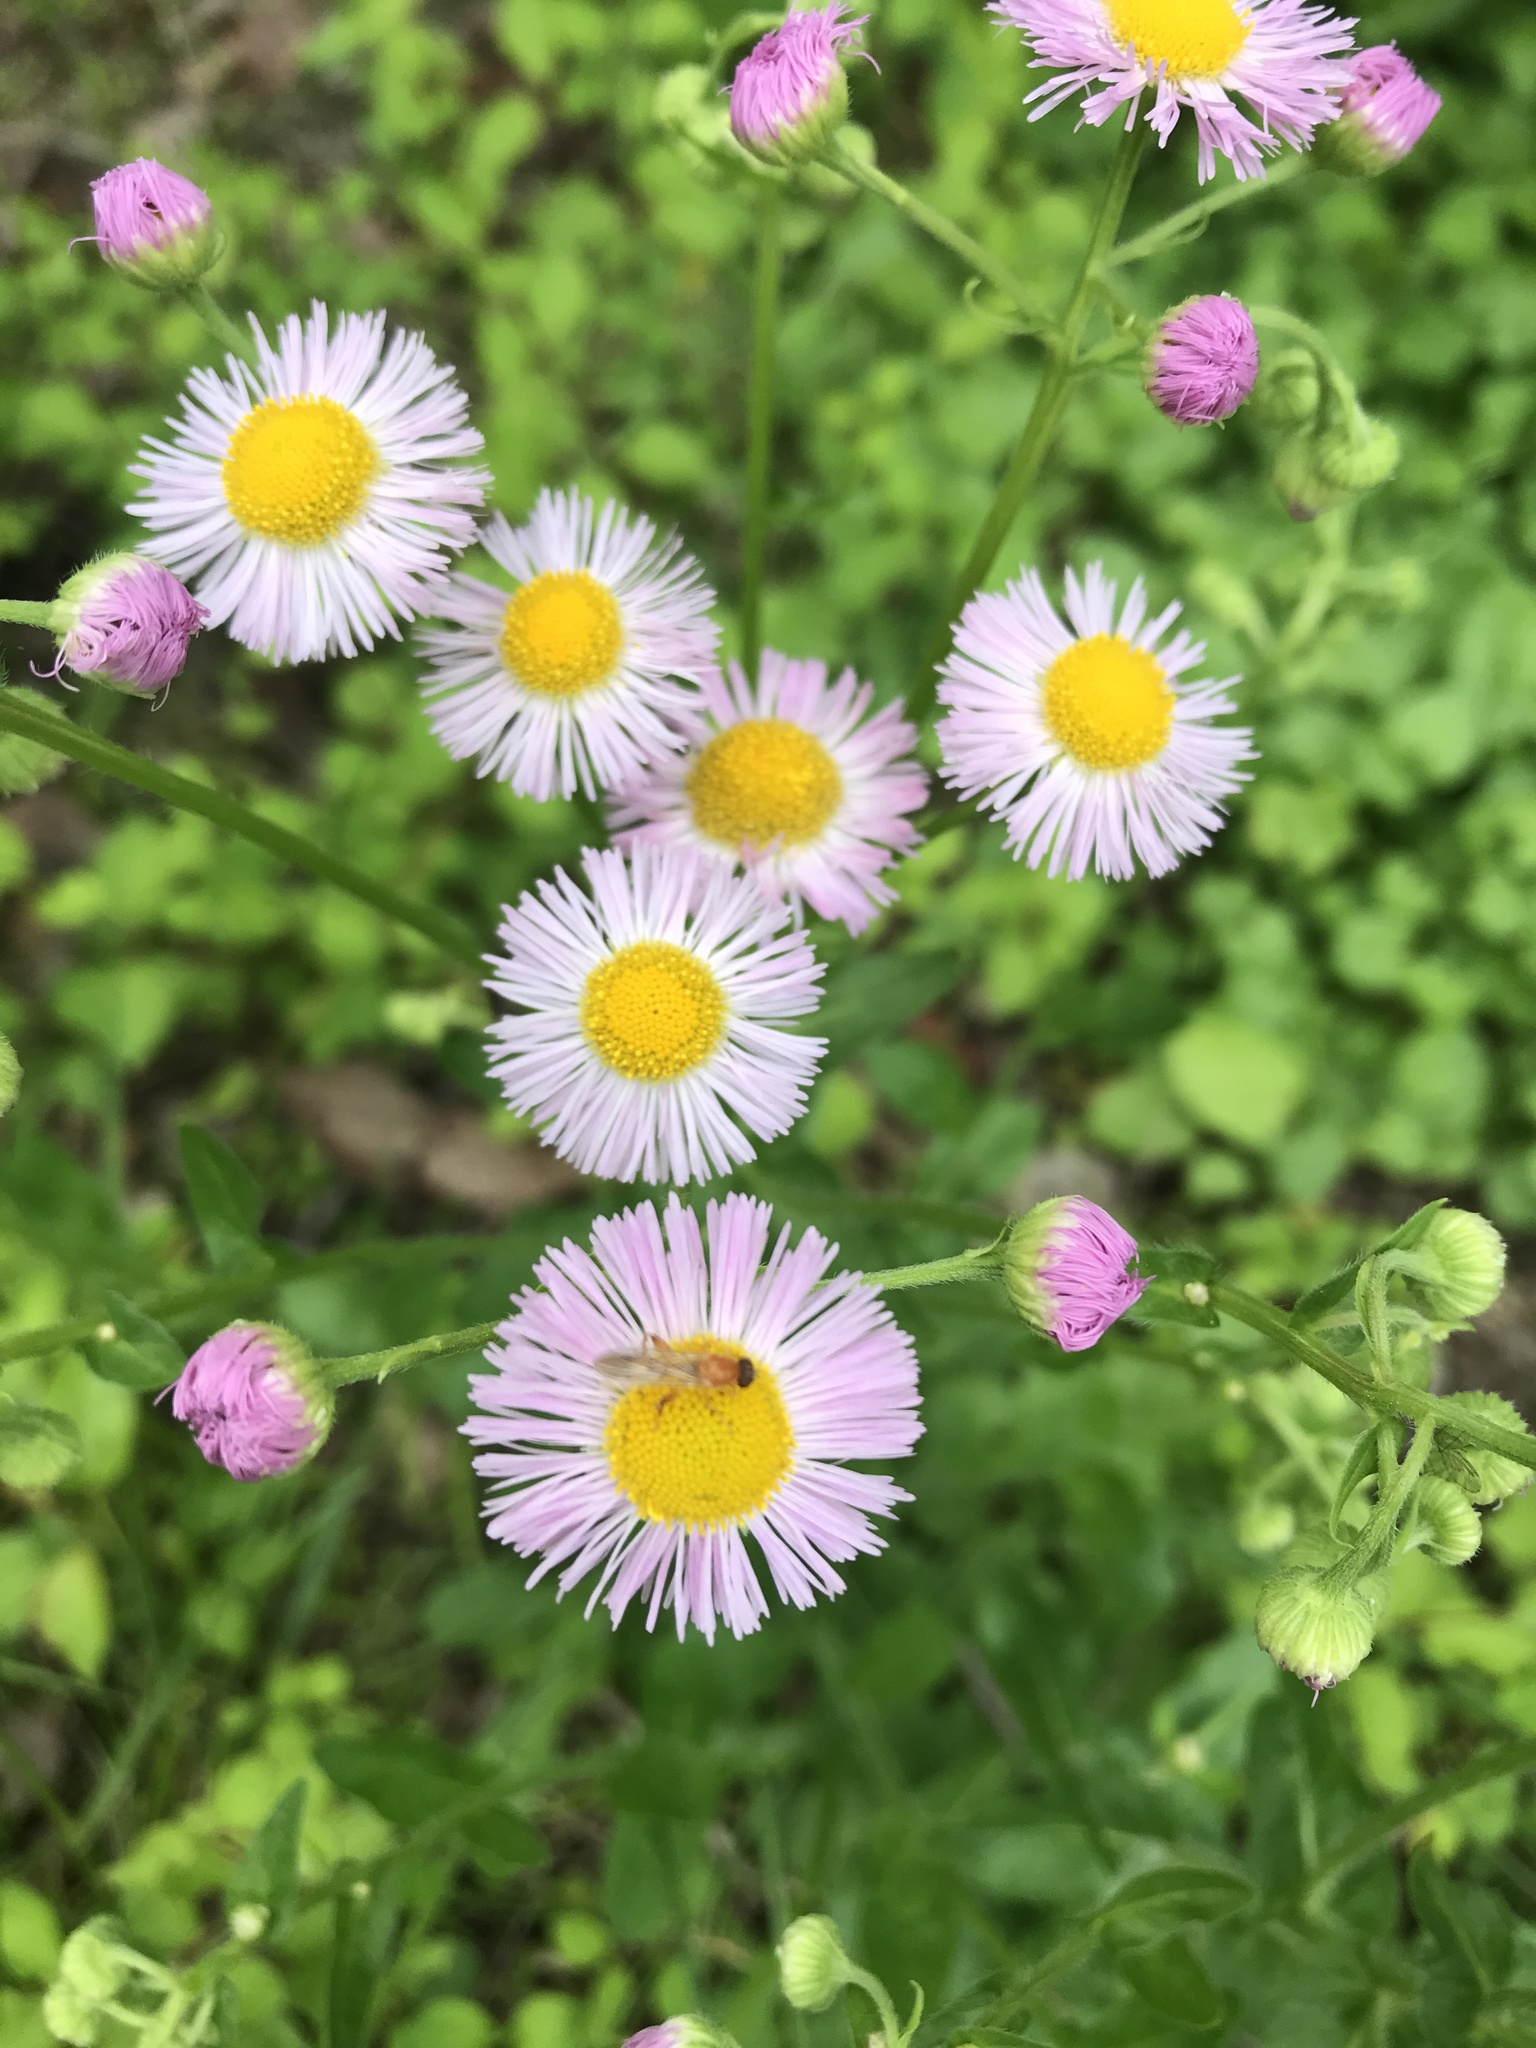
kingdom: Plantae
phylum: Tracheophyta
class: Magnoliopsida
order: Asterales
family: Asteraceae
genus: Erigeron
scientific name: Erigeron philadelphicus
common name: Robin's-plantain
